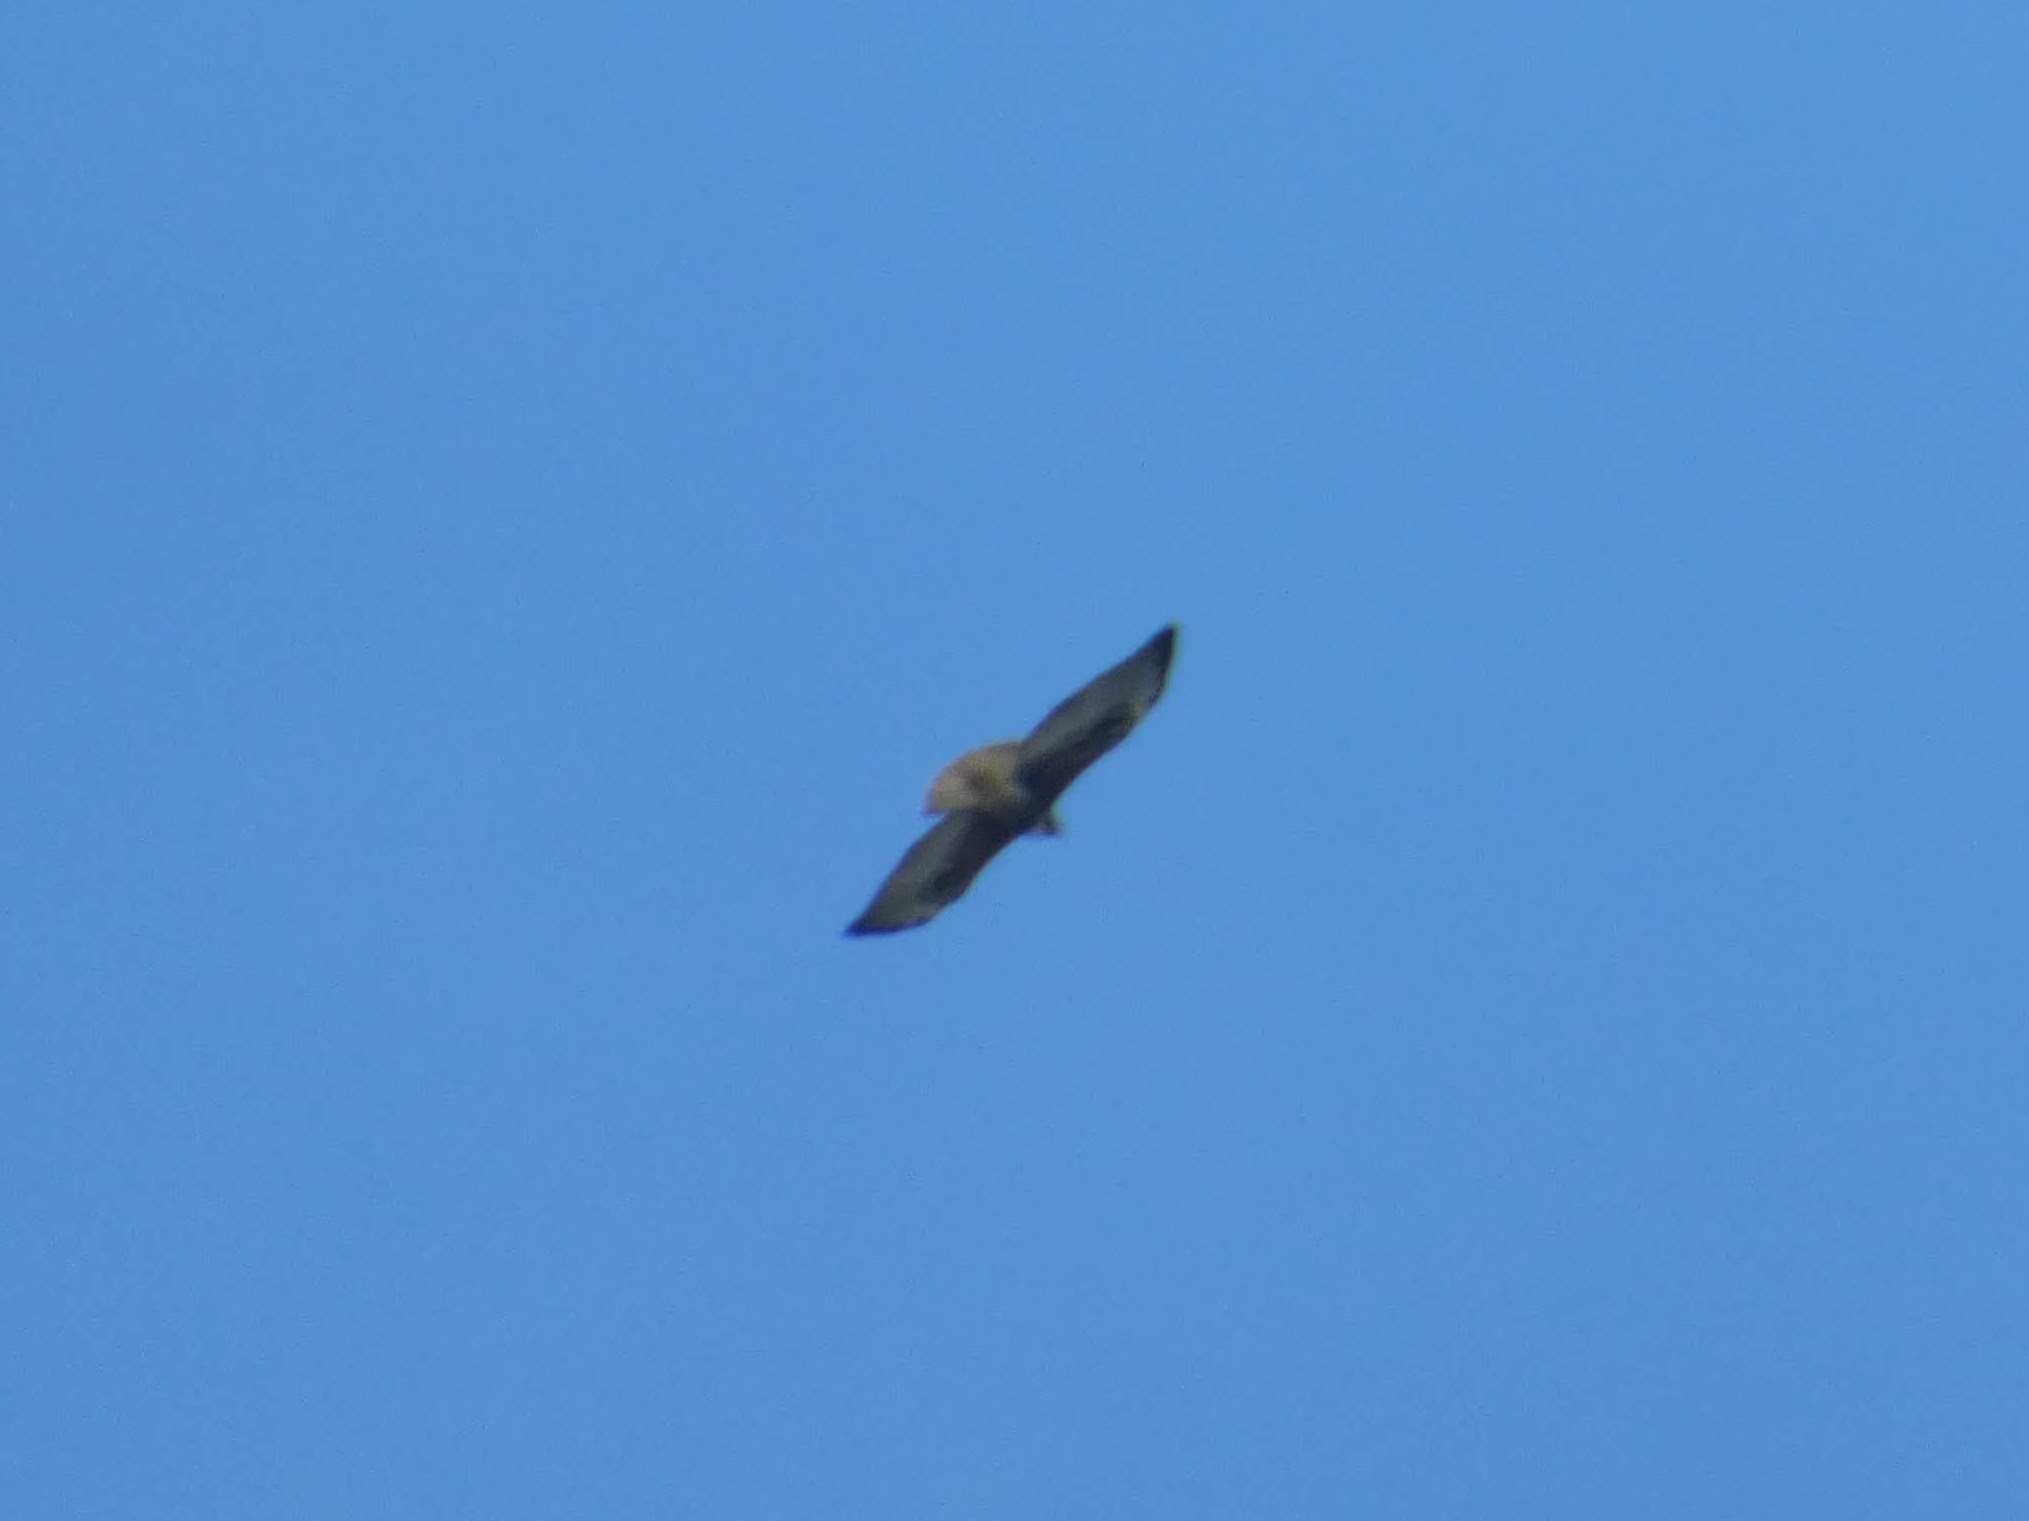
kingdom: Animalia
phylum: Chordata
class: Aves
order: Accipitriformes
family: Accipitridae
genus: Buteo
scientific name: Buteo swainsoni
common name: Swainson's hawk
